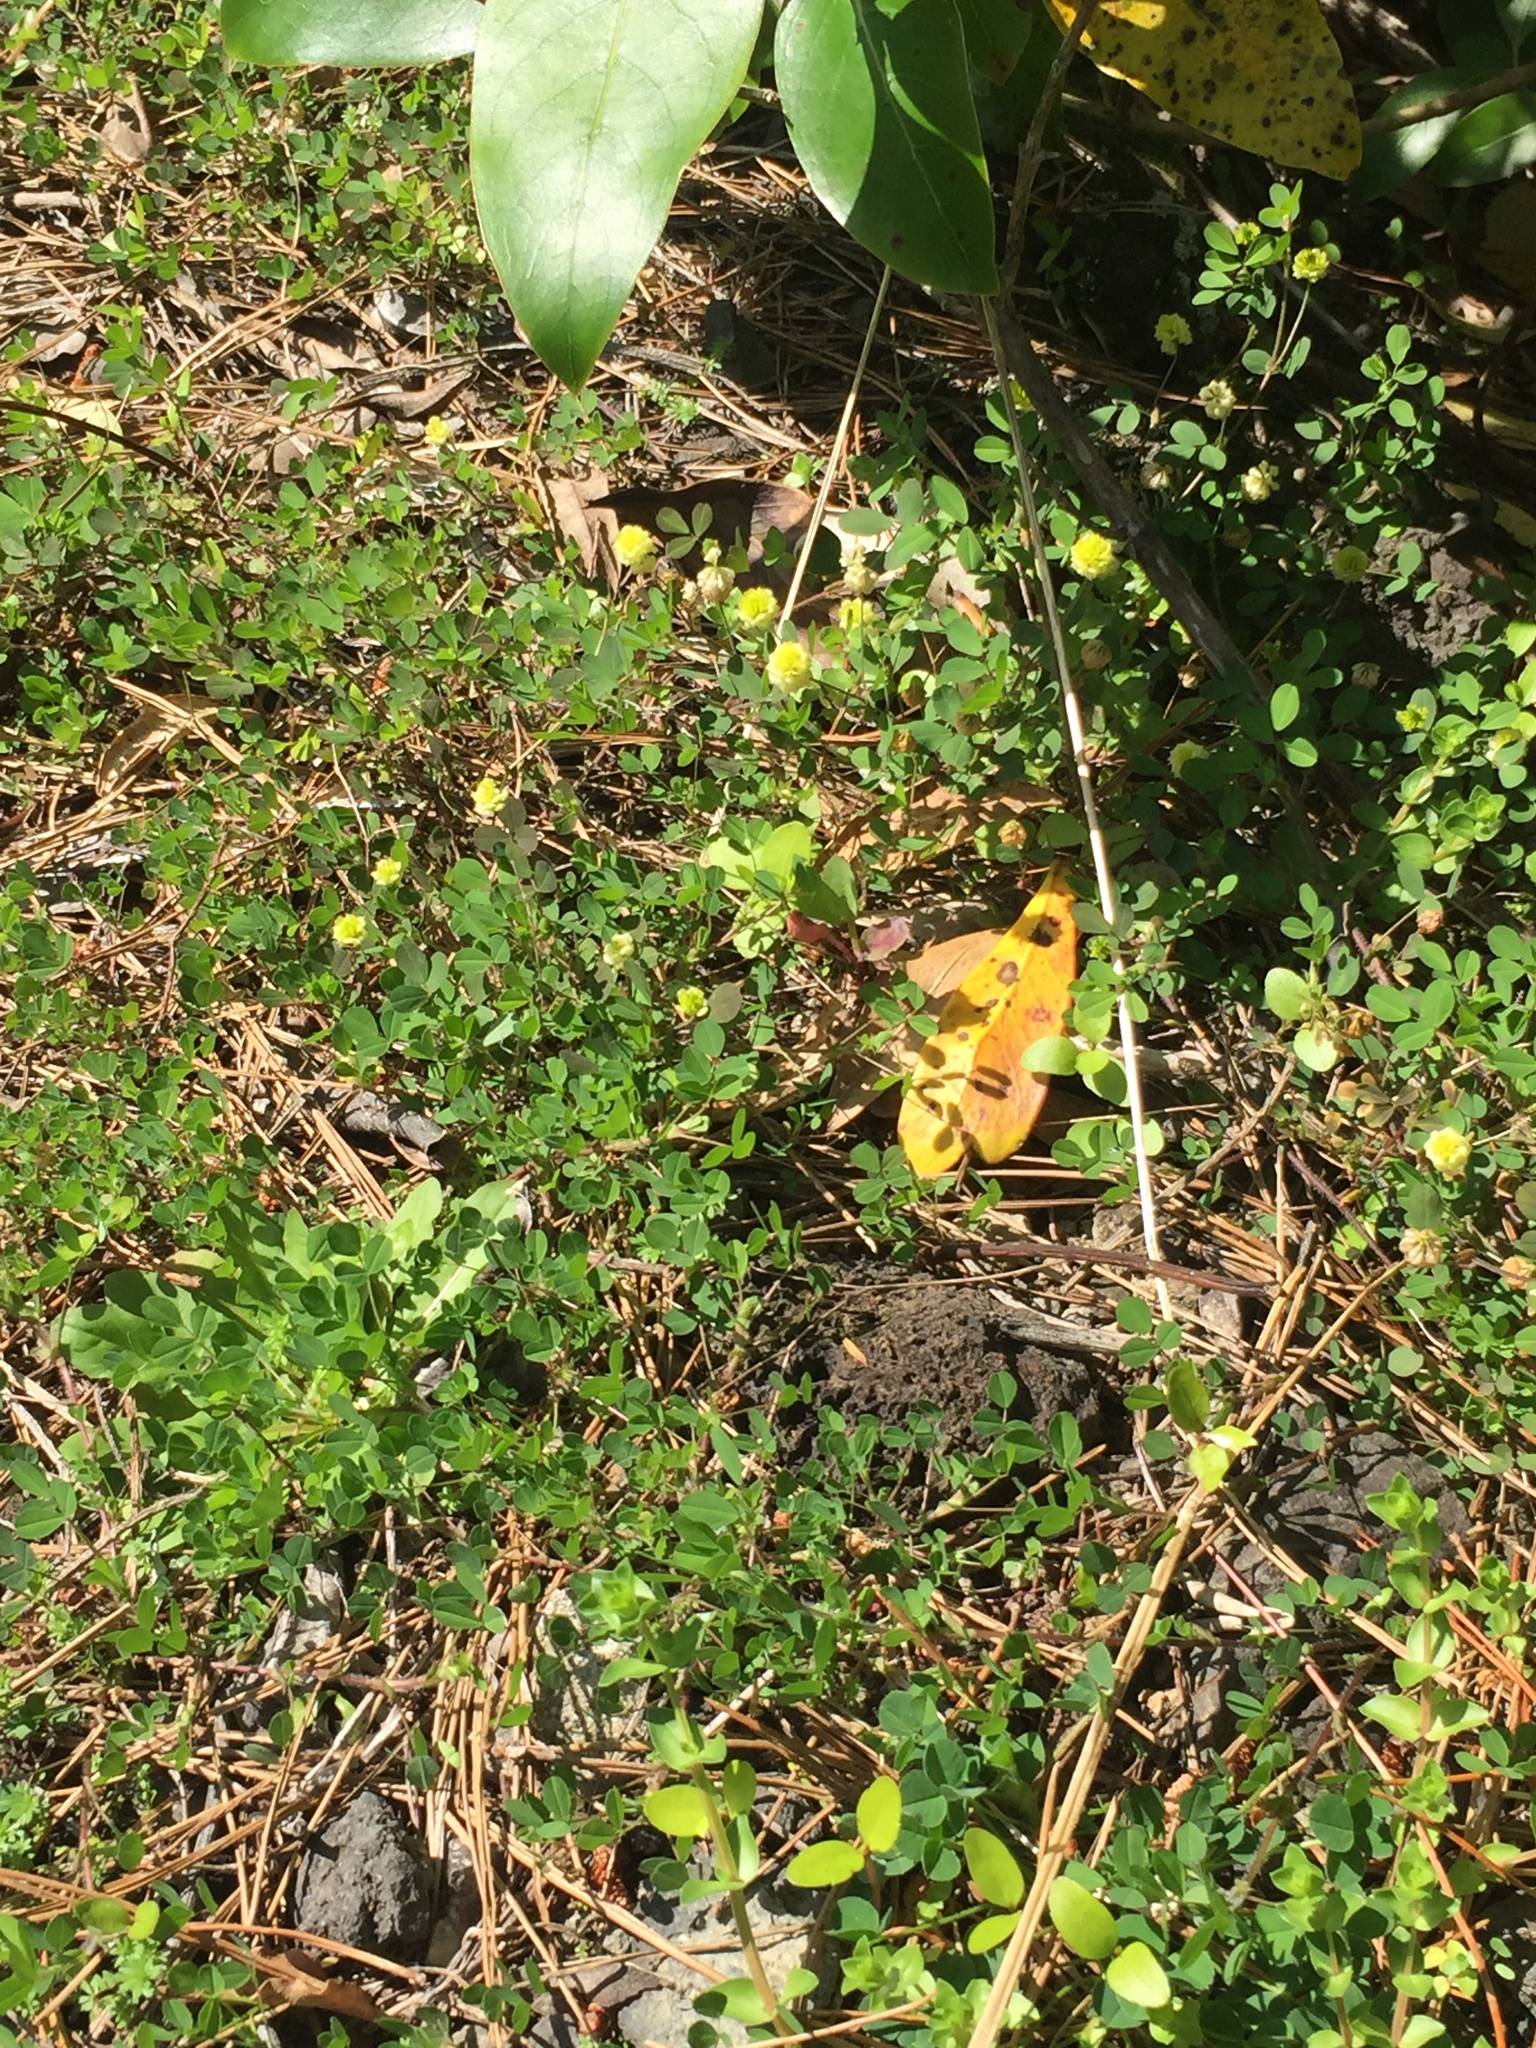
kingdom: Plantae
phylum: Tracheophyta
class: Magnoliopsida
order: Fabales
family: Fabaceae
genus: Trifolium
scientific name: Trifolium campestre
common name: Field clover
